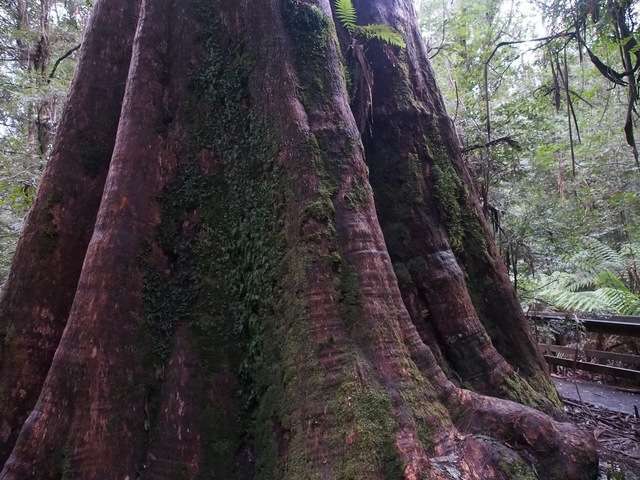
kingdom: Plantae
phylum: Tracheophyta
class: Magnoliopsida
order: Myrtales
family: Myrtaceae
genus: Eucalyptus
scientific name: Eucalyptus regnans
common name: Stringy gum
